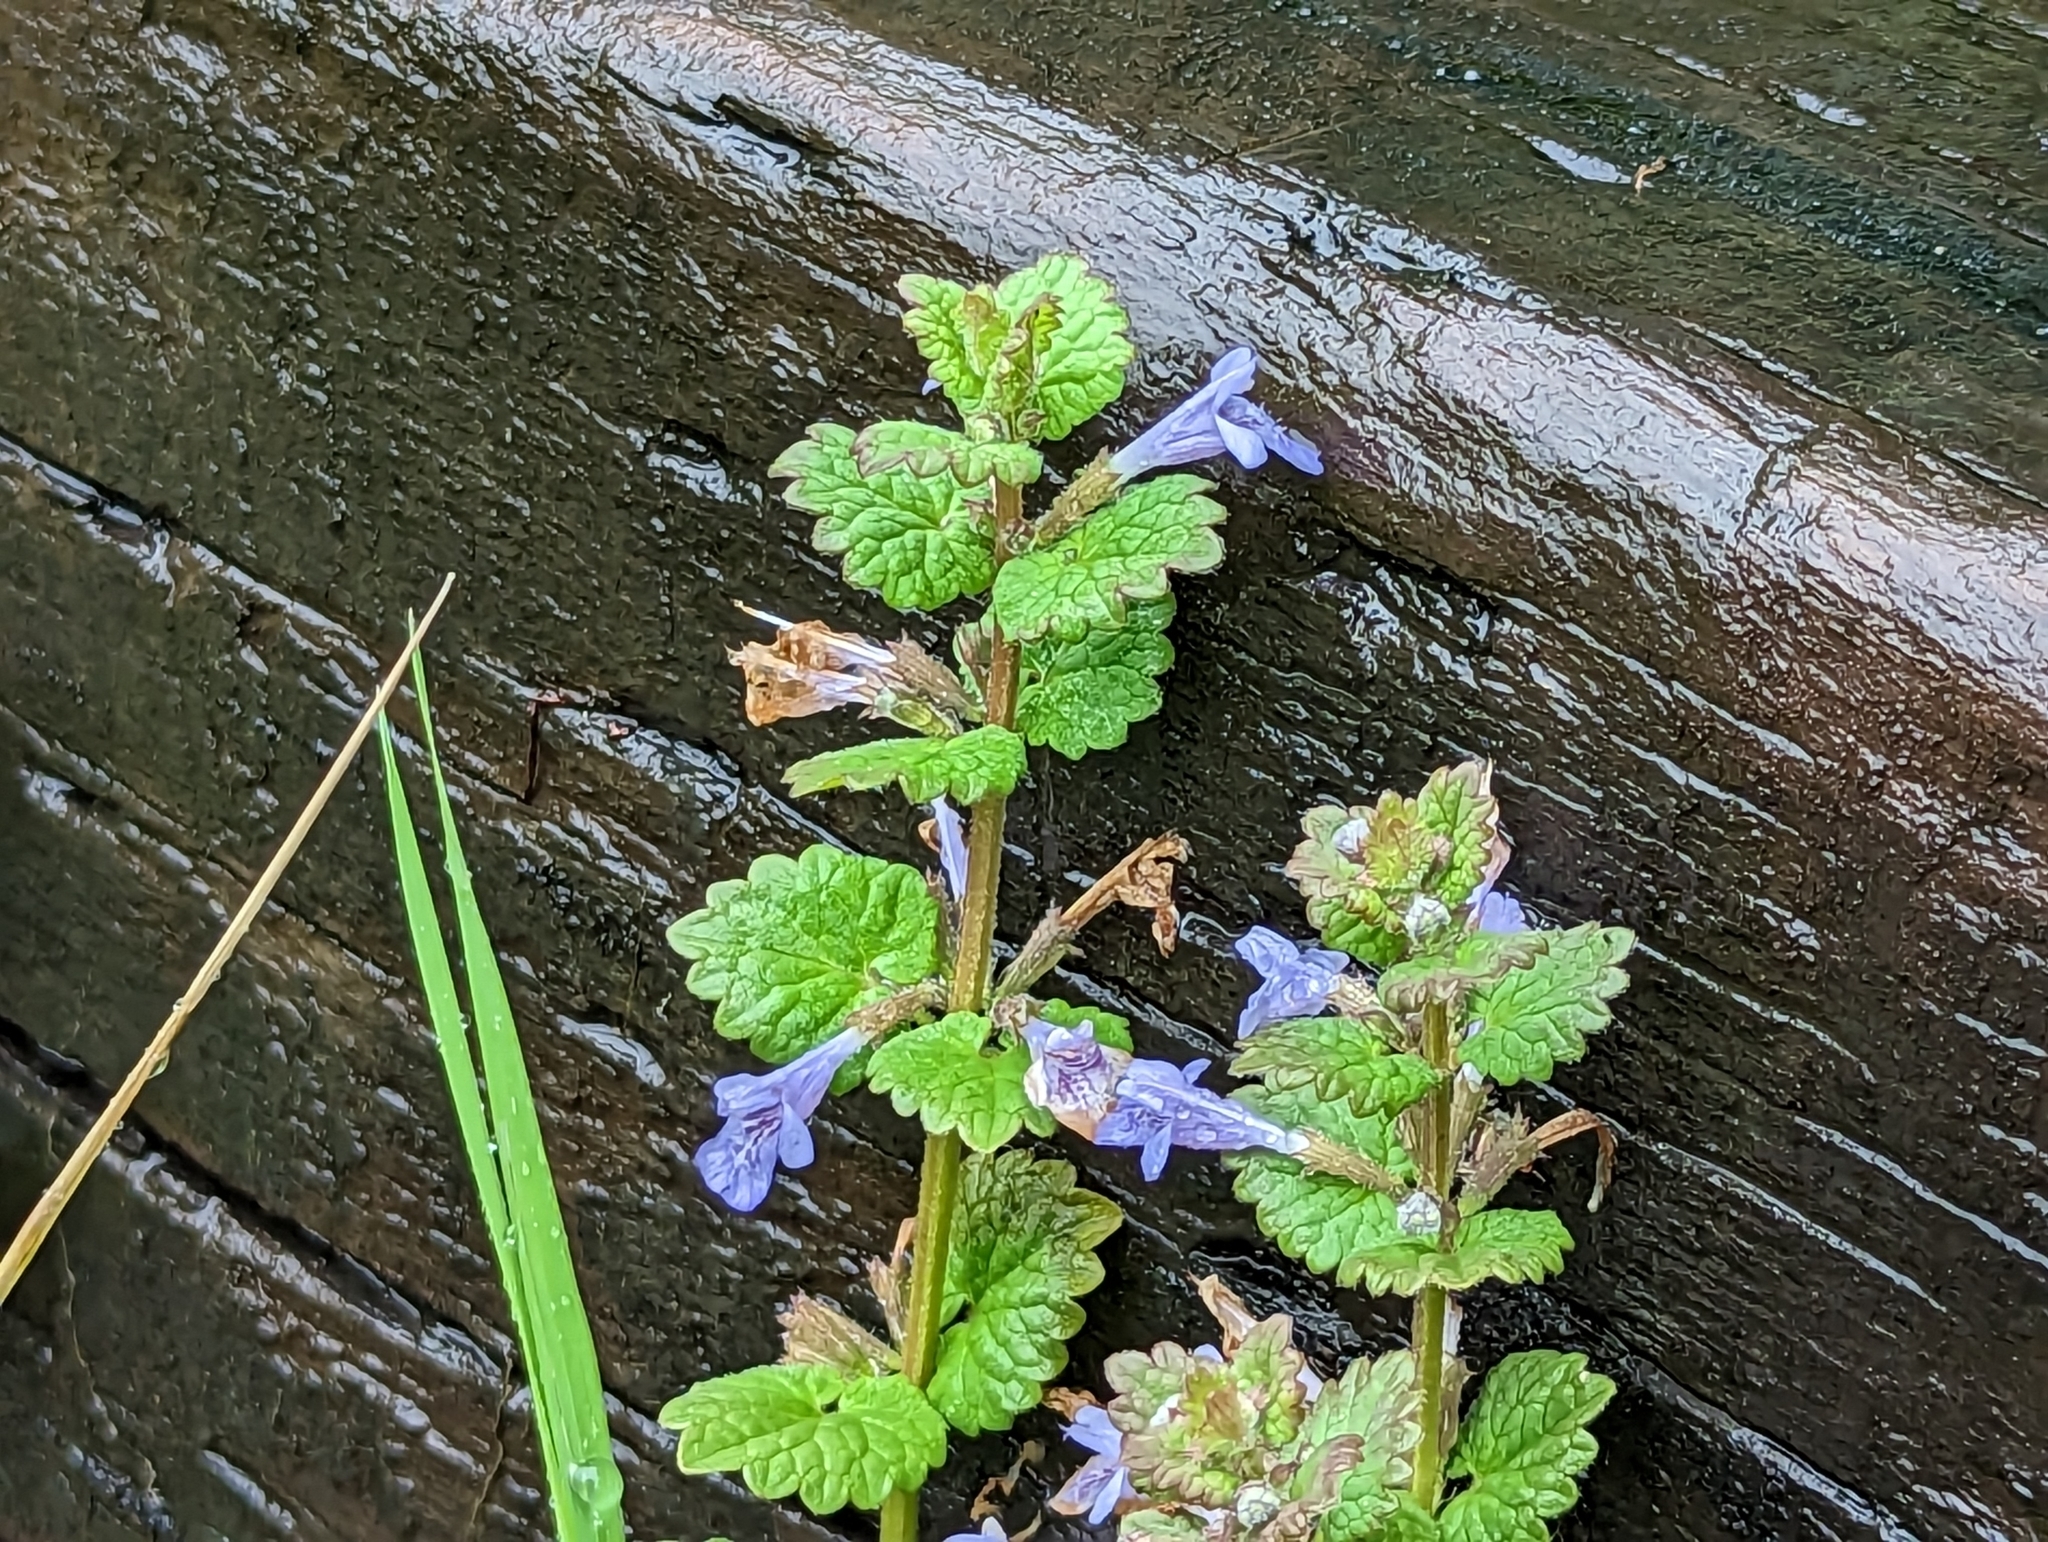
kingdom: Plantae
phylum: Tracheophyta
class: Magnoliopsida
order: Lamiales
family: Lamiaceae
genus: Glechoma
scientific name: Glechoma hederacea
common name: Ground ivy
